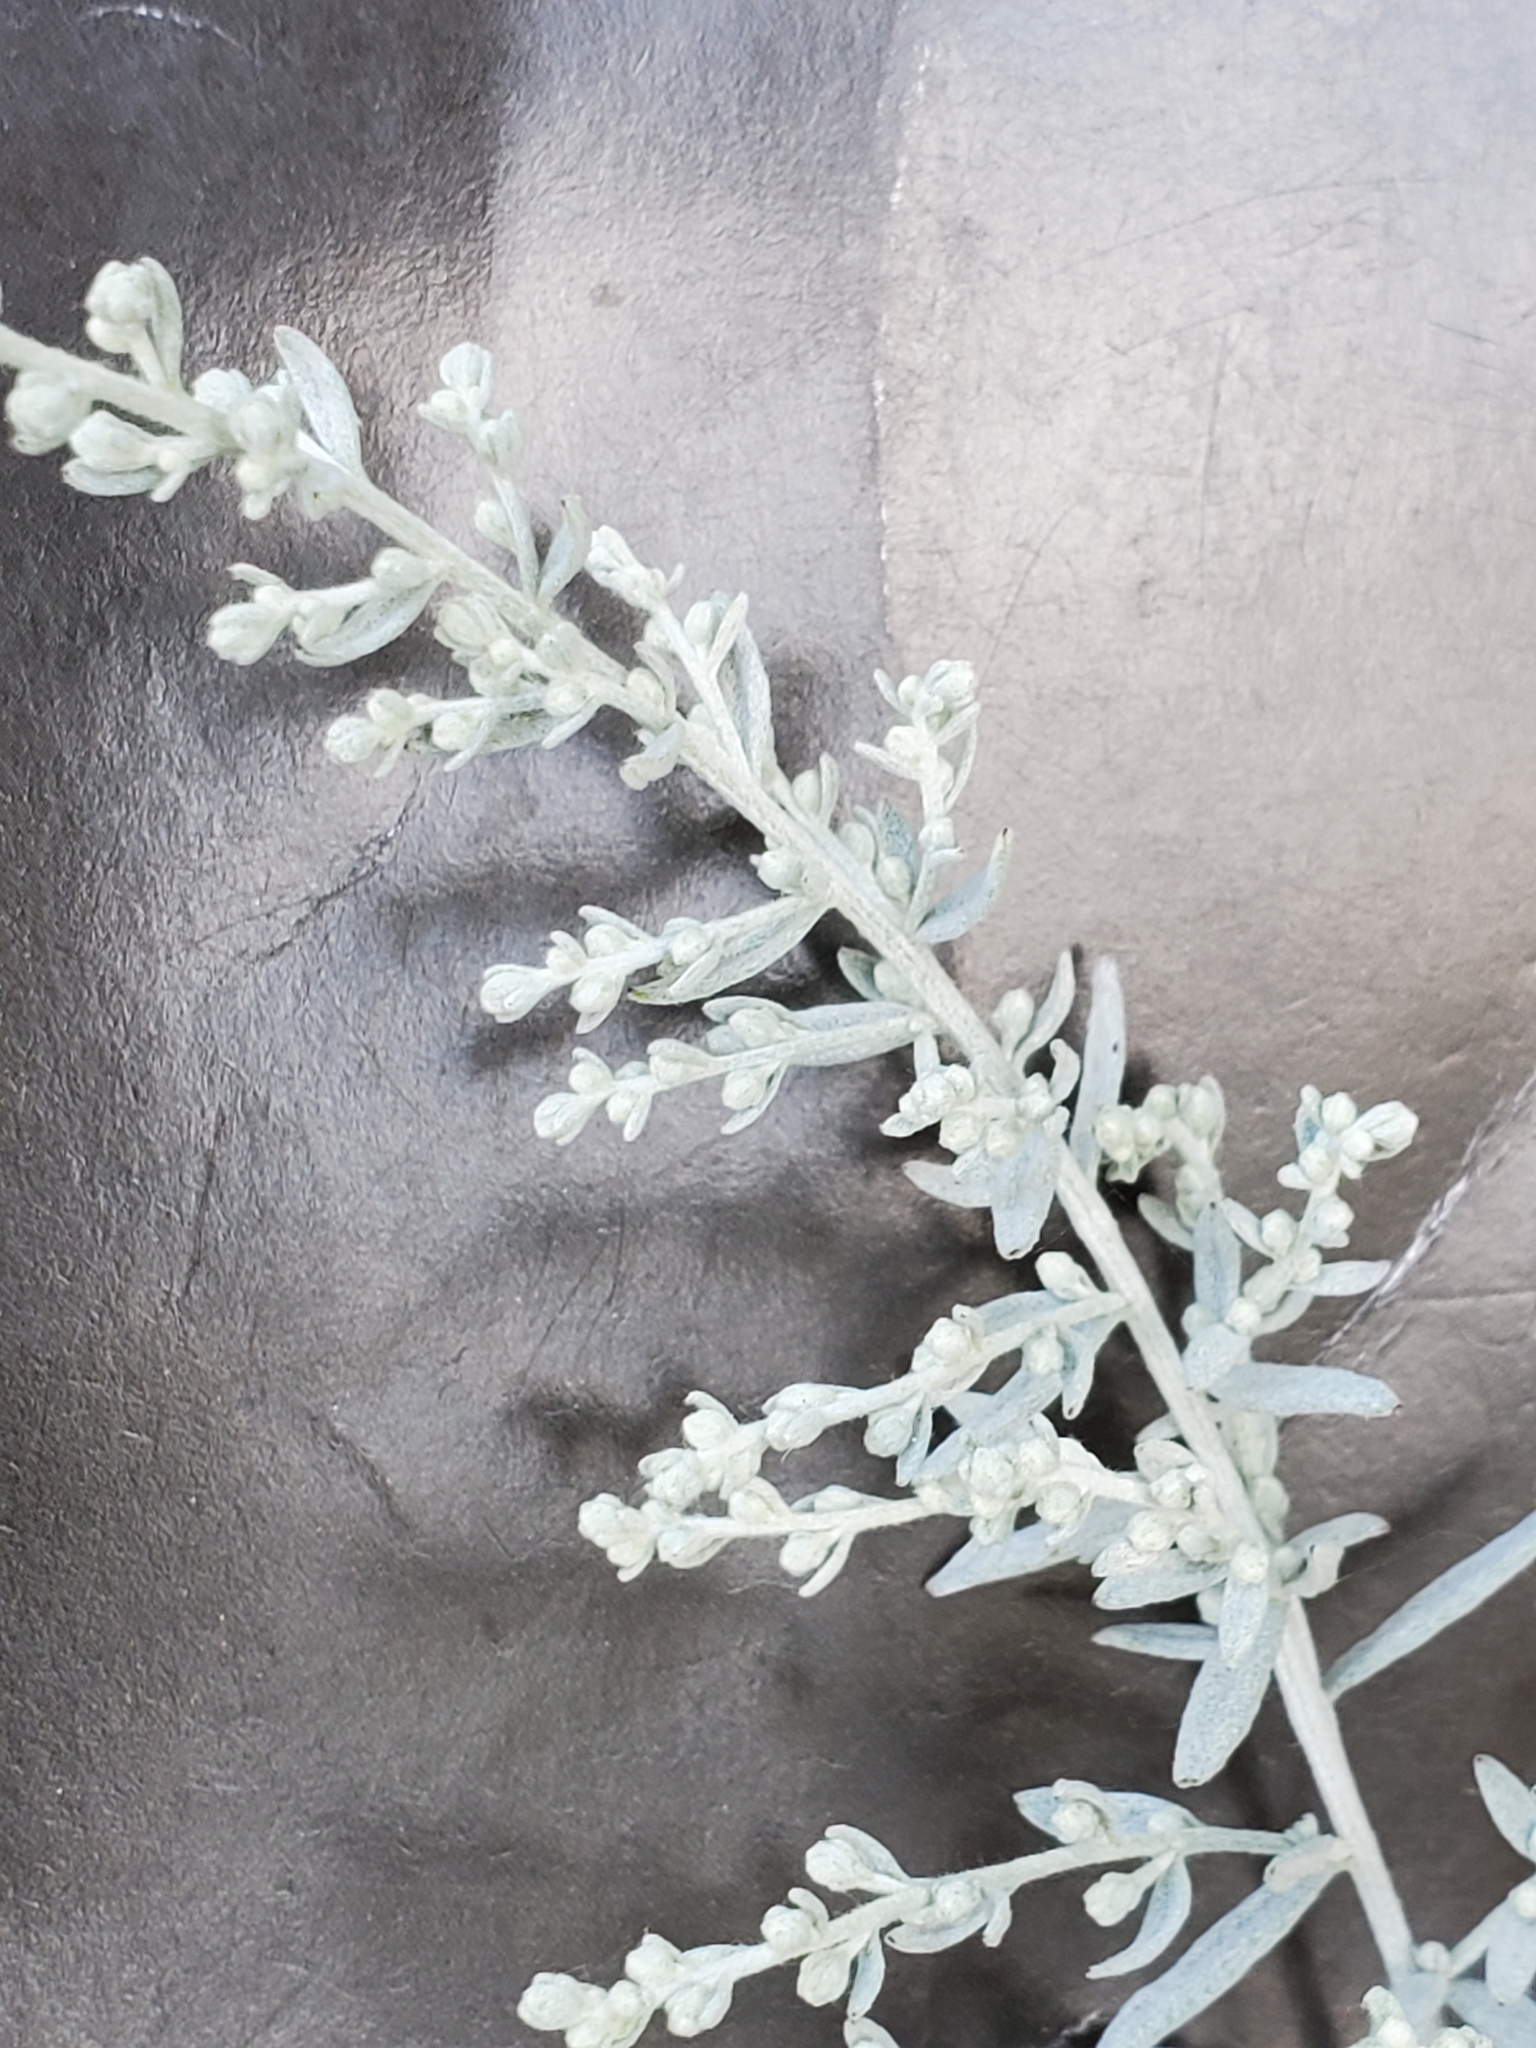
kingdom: Plantae
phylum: Tracheophyta
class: Magnoliopsida
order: Asterales
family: Asteraceae
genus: Artemisia
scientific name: Artemisia ludoviciana
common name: Western mugwort
